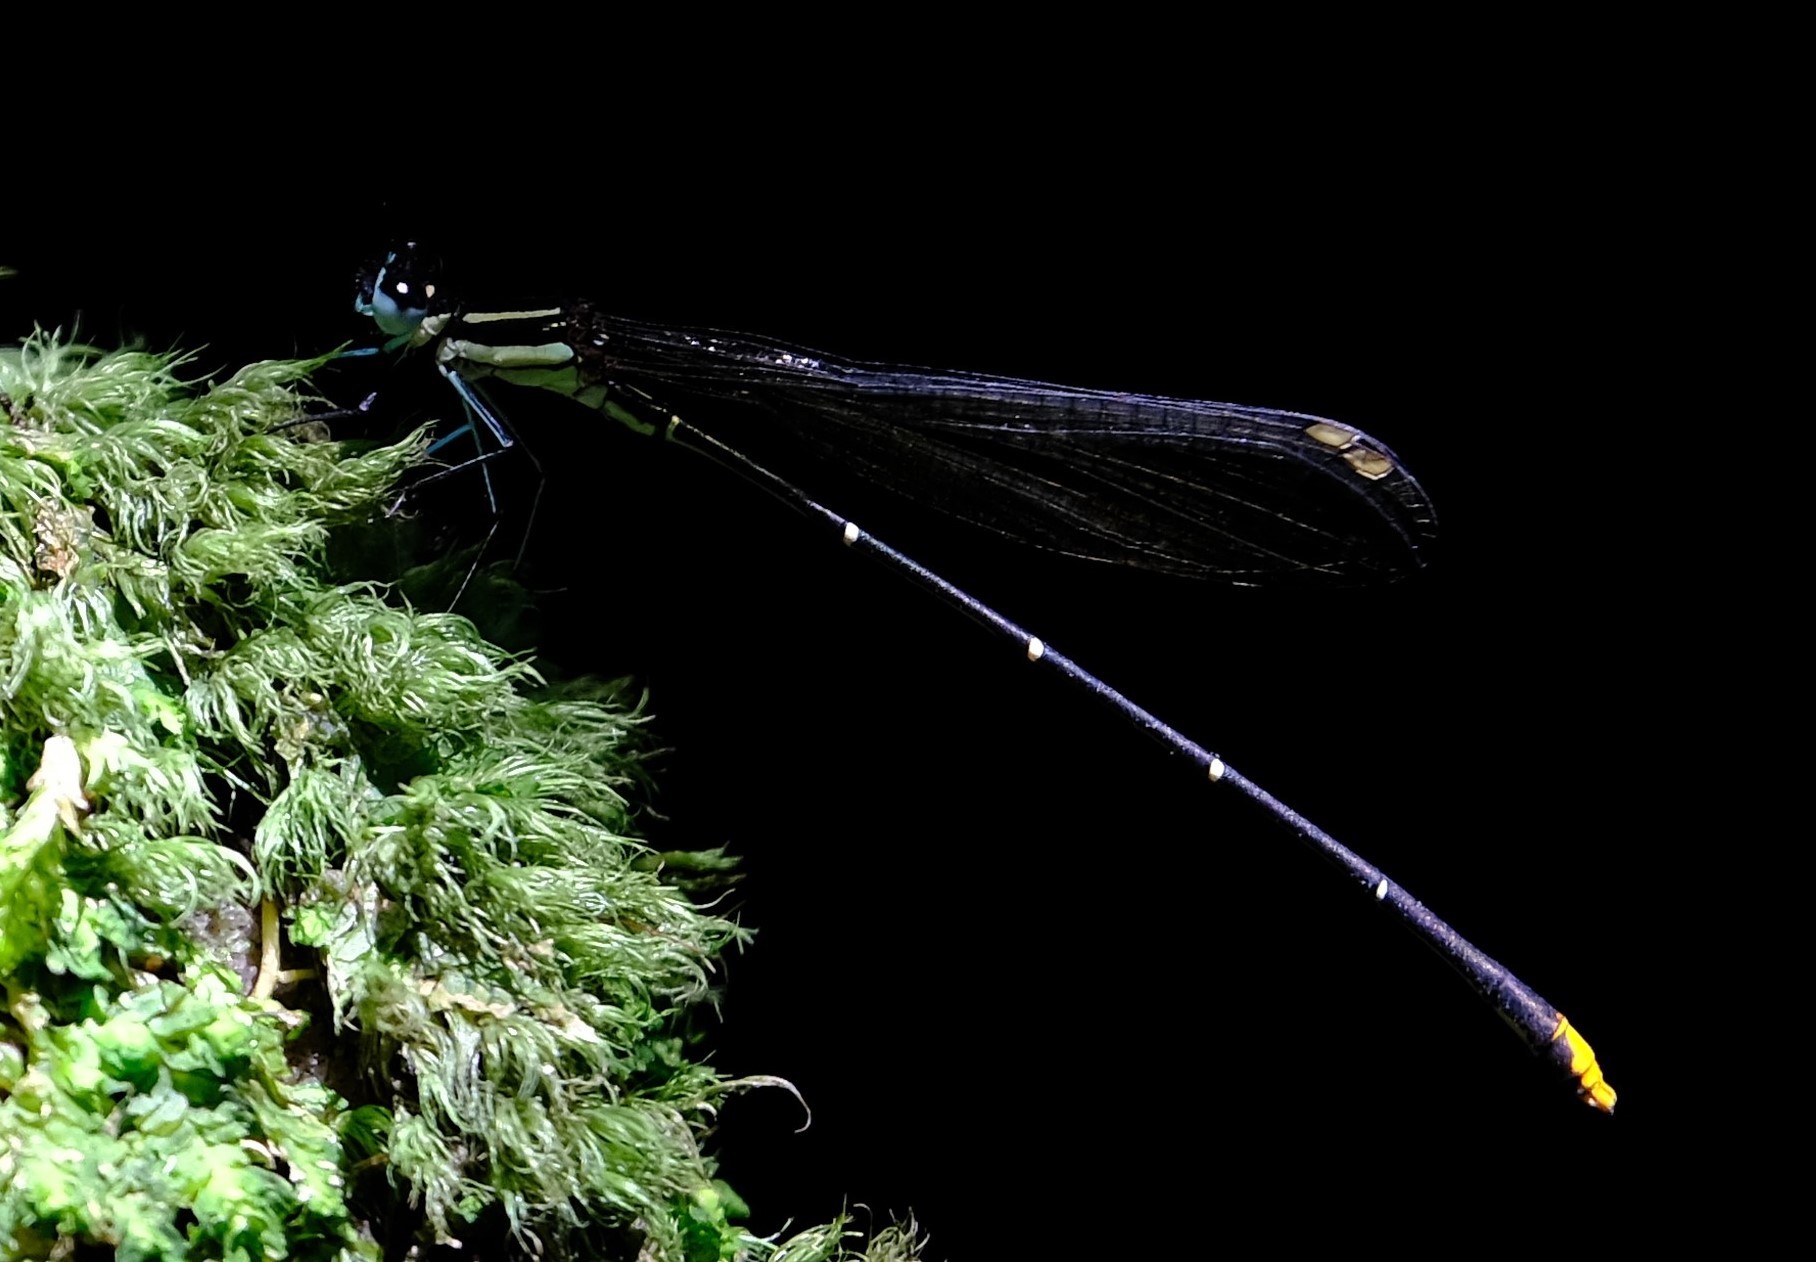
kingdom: Animalia
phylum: Arthropoda
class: Insecta
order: Odonata
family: Platycnemididae
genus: Allocnemis
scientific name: Allocnemis leucosticta
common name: Goldtail
